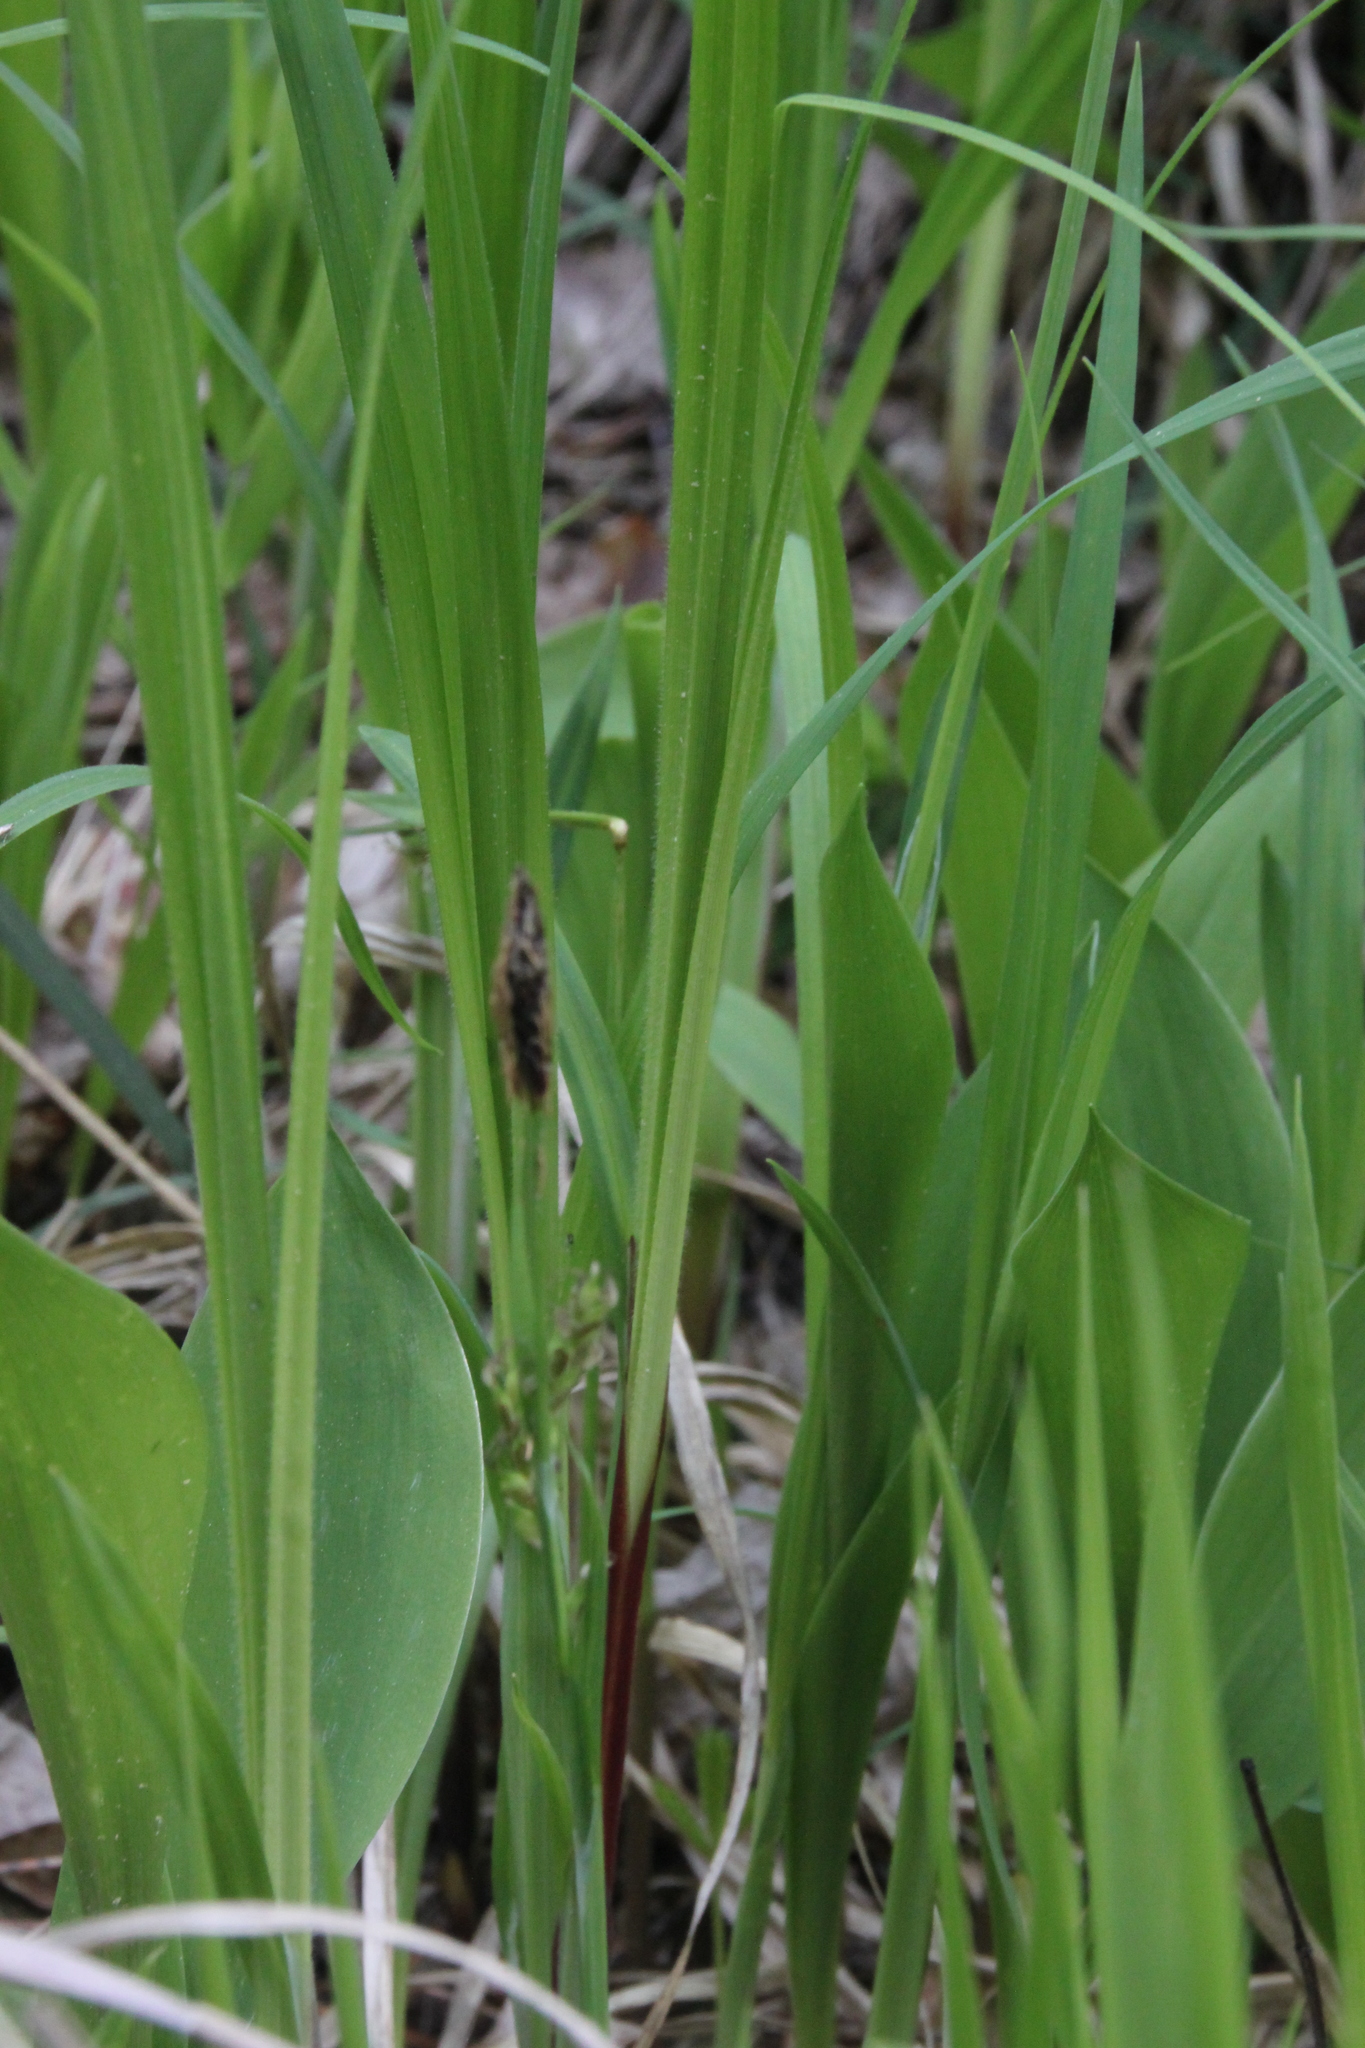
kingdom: Plantae
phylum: Tracheophyta
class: Liliopsida
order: Poales
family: Cyperaceae
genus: Carex
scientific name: Carex pilosa
